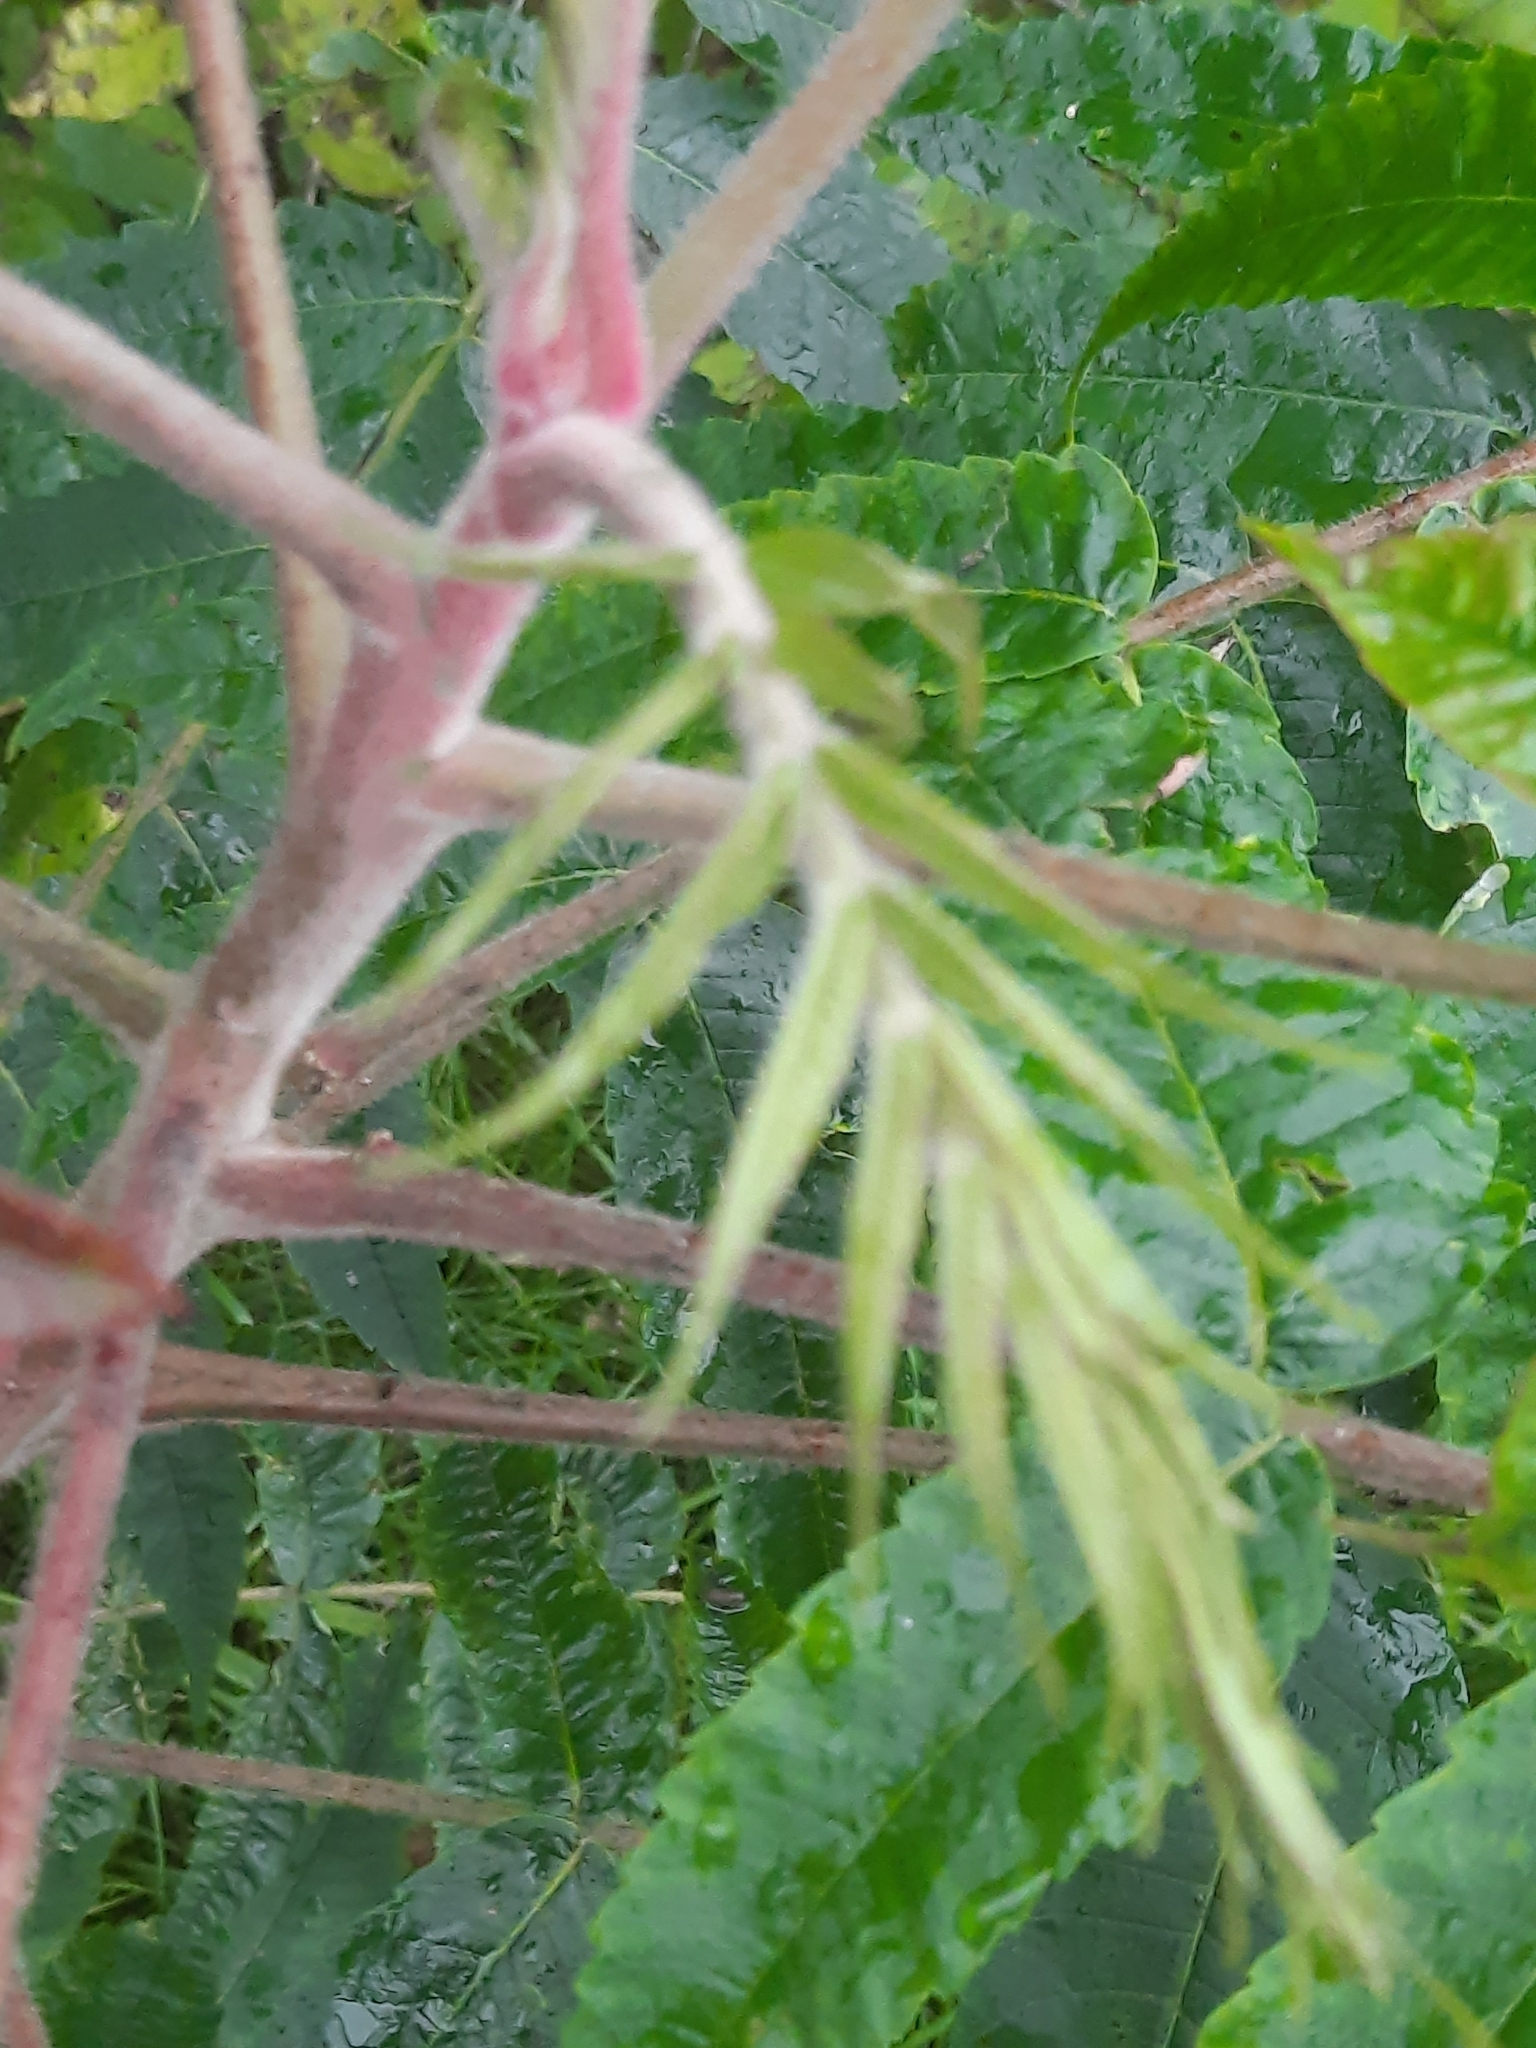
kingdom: Plantae
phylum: Tracheophyta
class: Magnoliopsida
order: Sapindales
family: Anacardiaceae
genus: Rhus
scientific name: Rhus typhina
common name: Staghorn sumac
